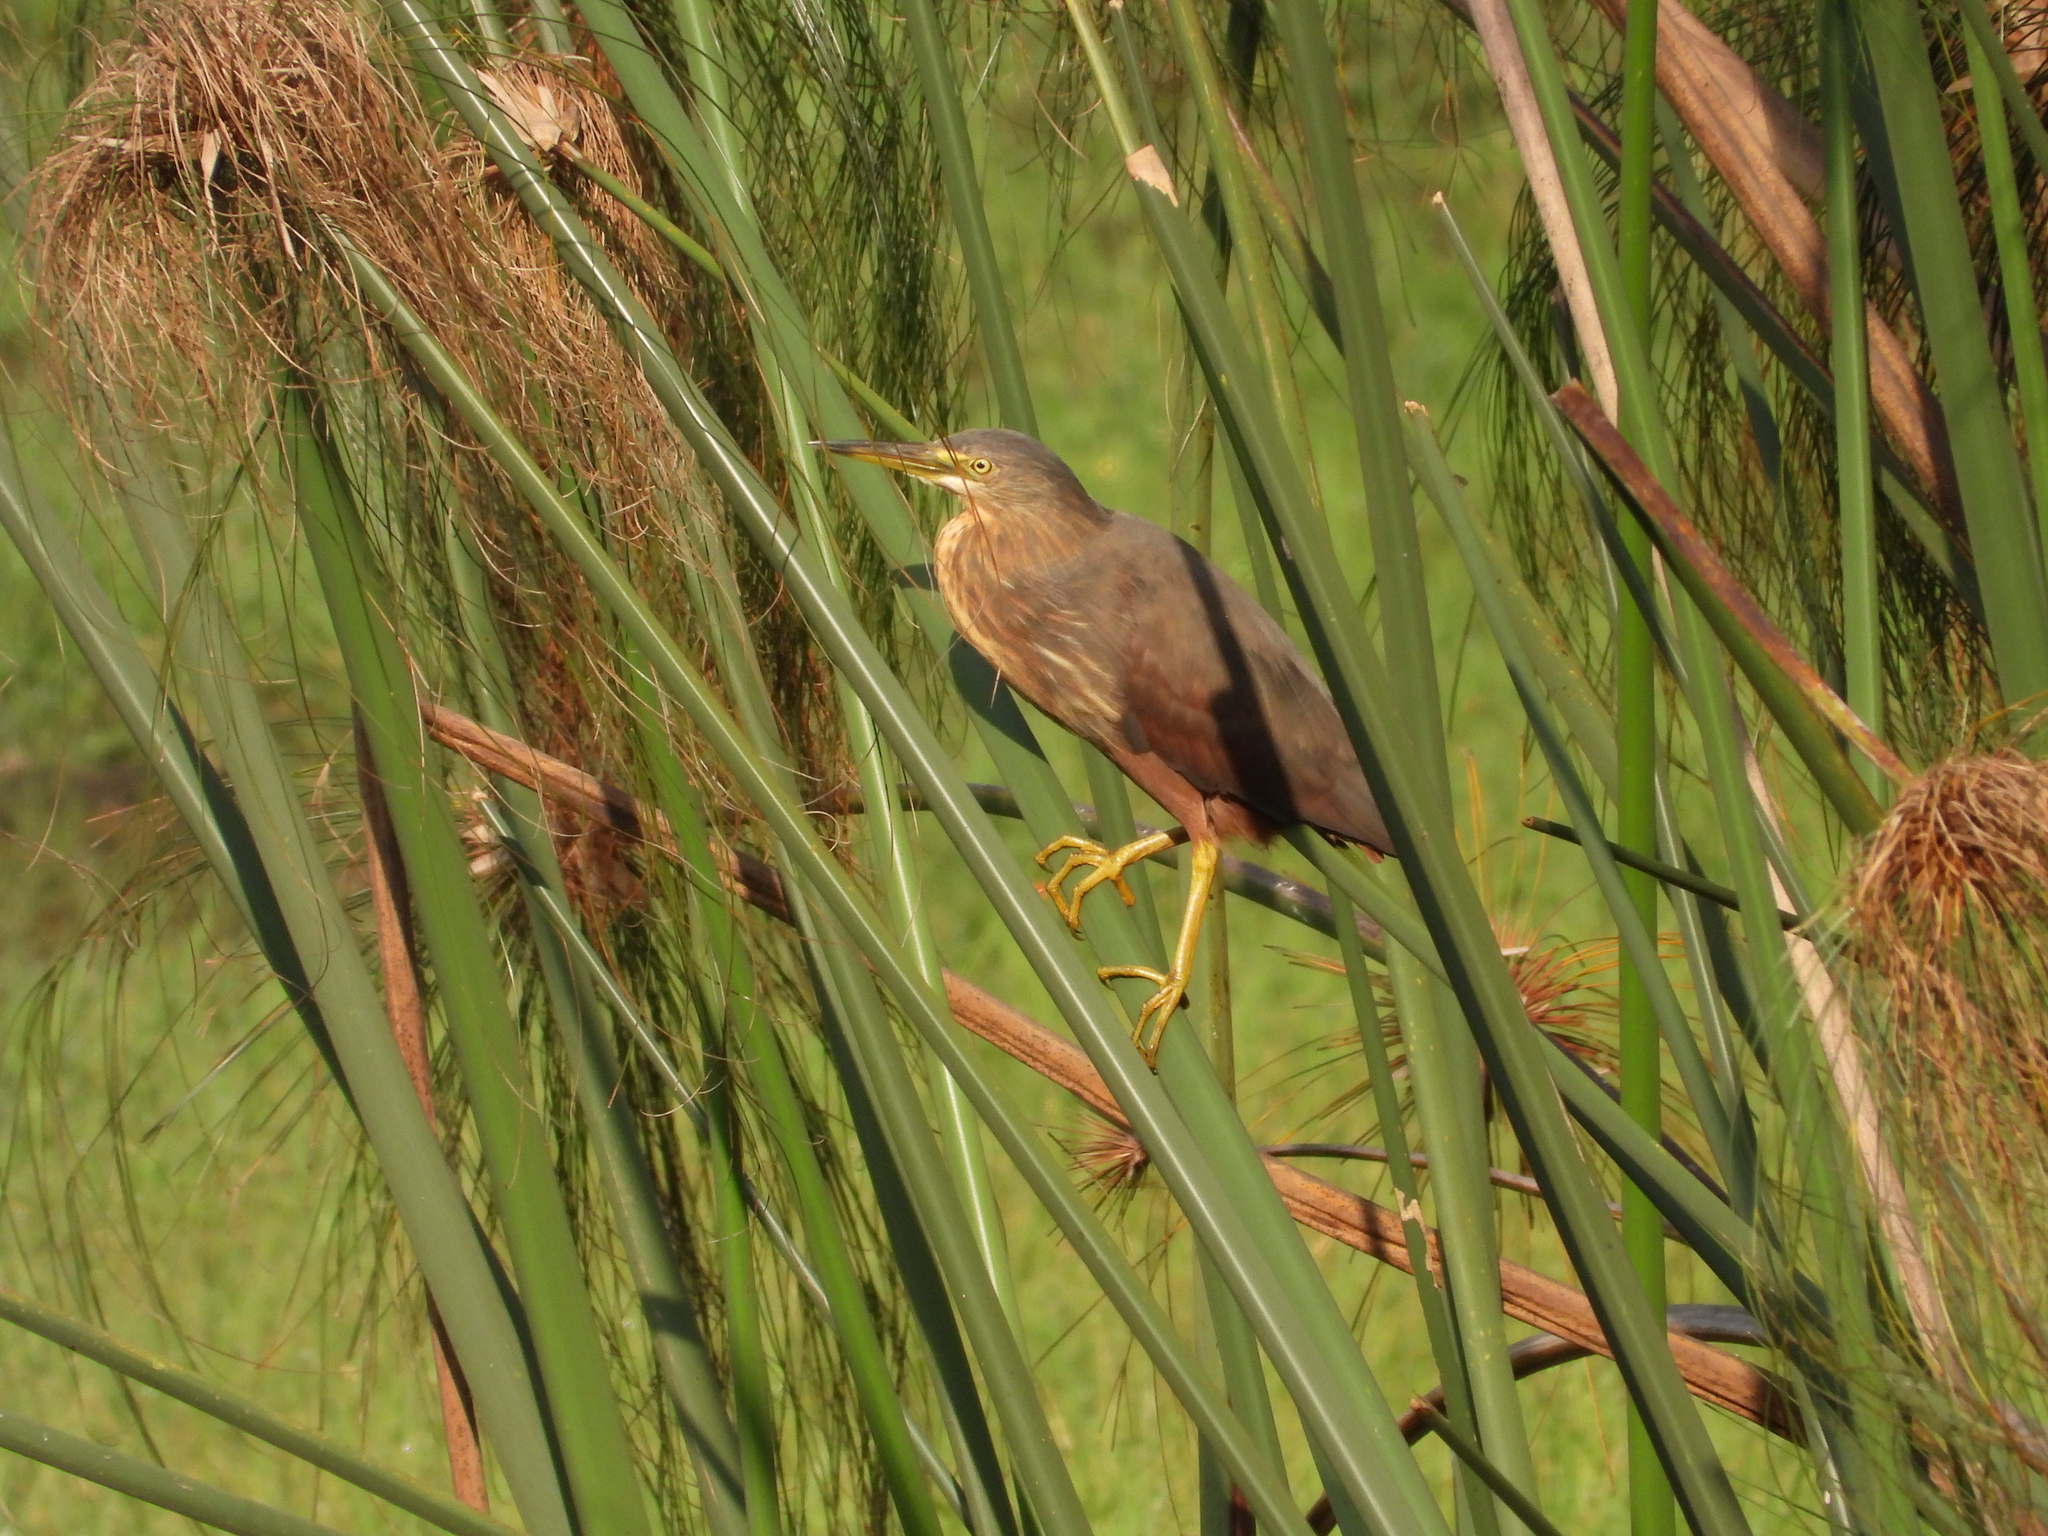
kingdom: Animalia
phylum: Chordata
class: Aves
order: Pelecaniformes
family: Ardeidae
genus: Ardeola
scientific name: Ardeola rufiventris
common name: Rufous-bellied heron
